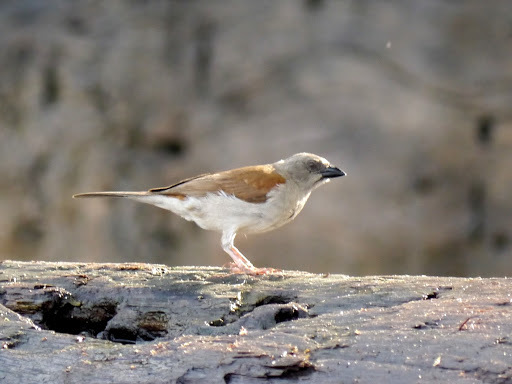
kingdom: Animalia
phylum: Chordata
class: Aves
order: Passeriformes
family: Passeridae
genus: Passer
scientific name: Passer griseus
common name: Northern grey-headed sparrow
